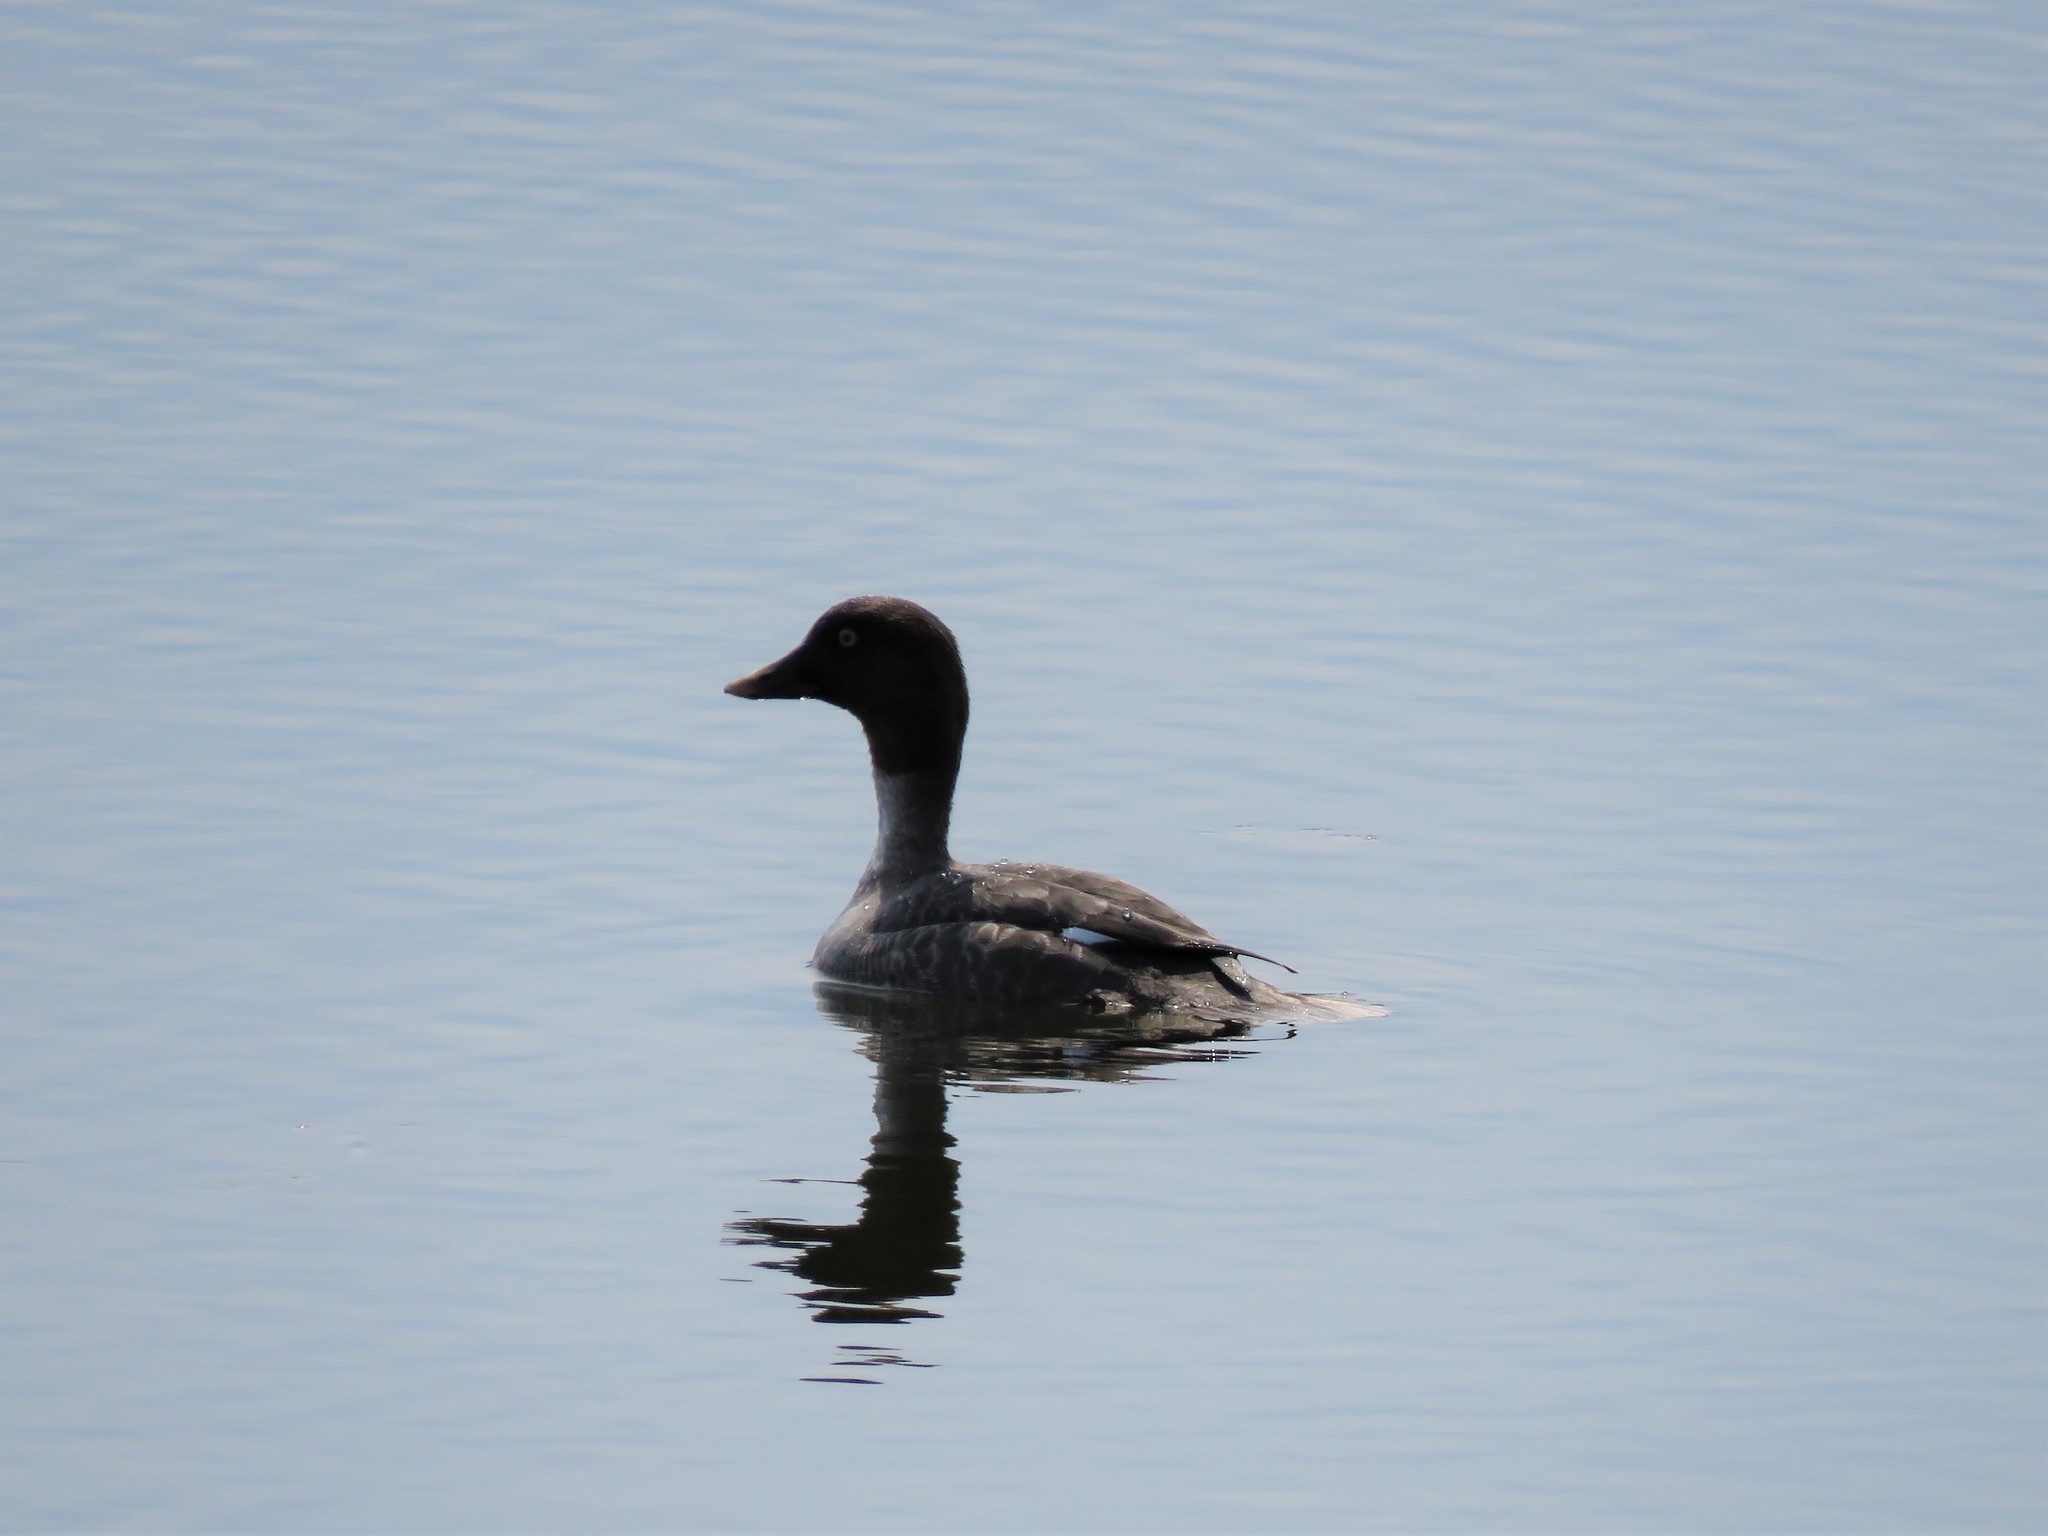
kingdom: Animalia
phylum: Chordata
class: Aves
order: Anseriformes
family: Anatidae
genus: Bucephala
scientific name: Bucephala clangula
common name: Common goldeneye
